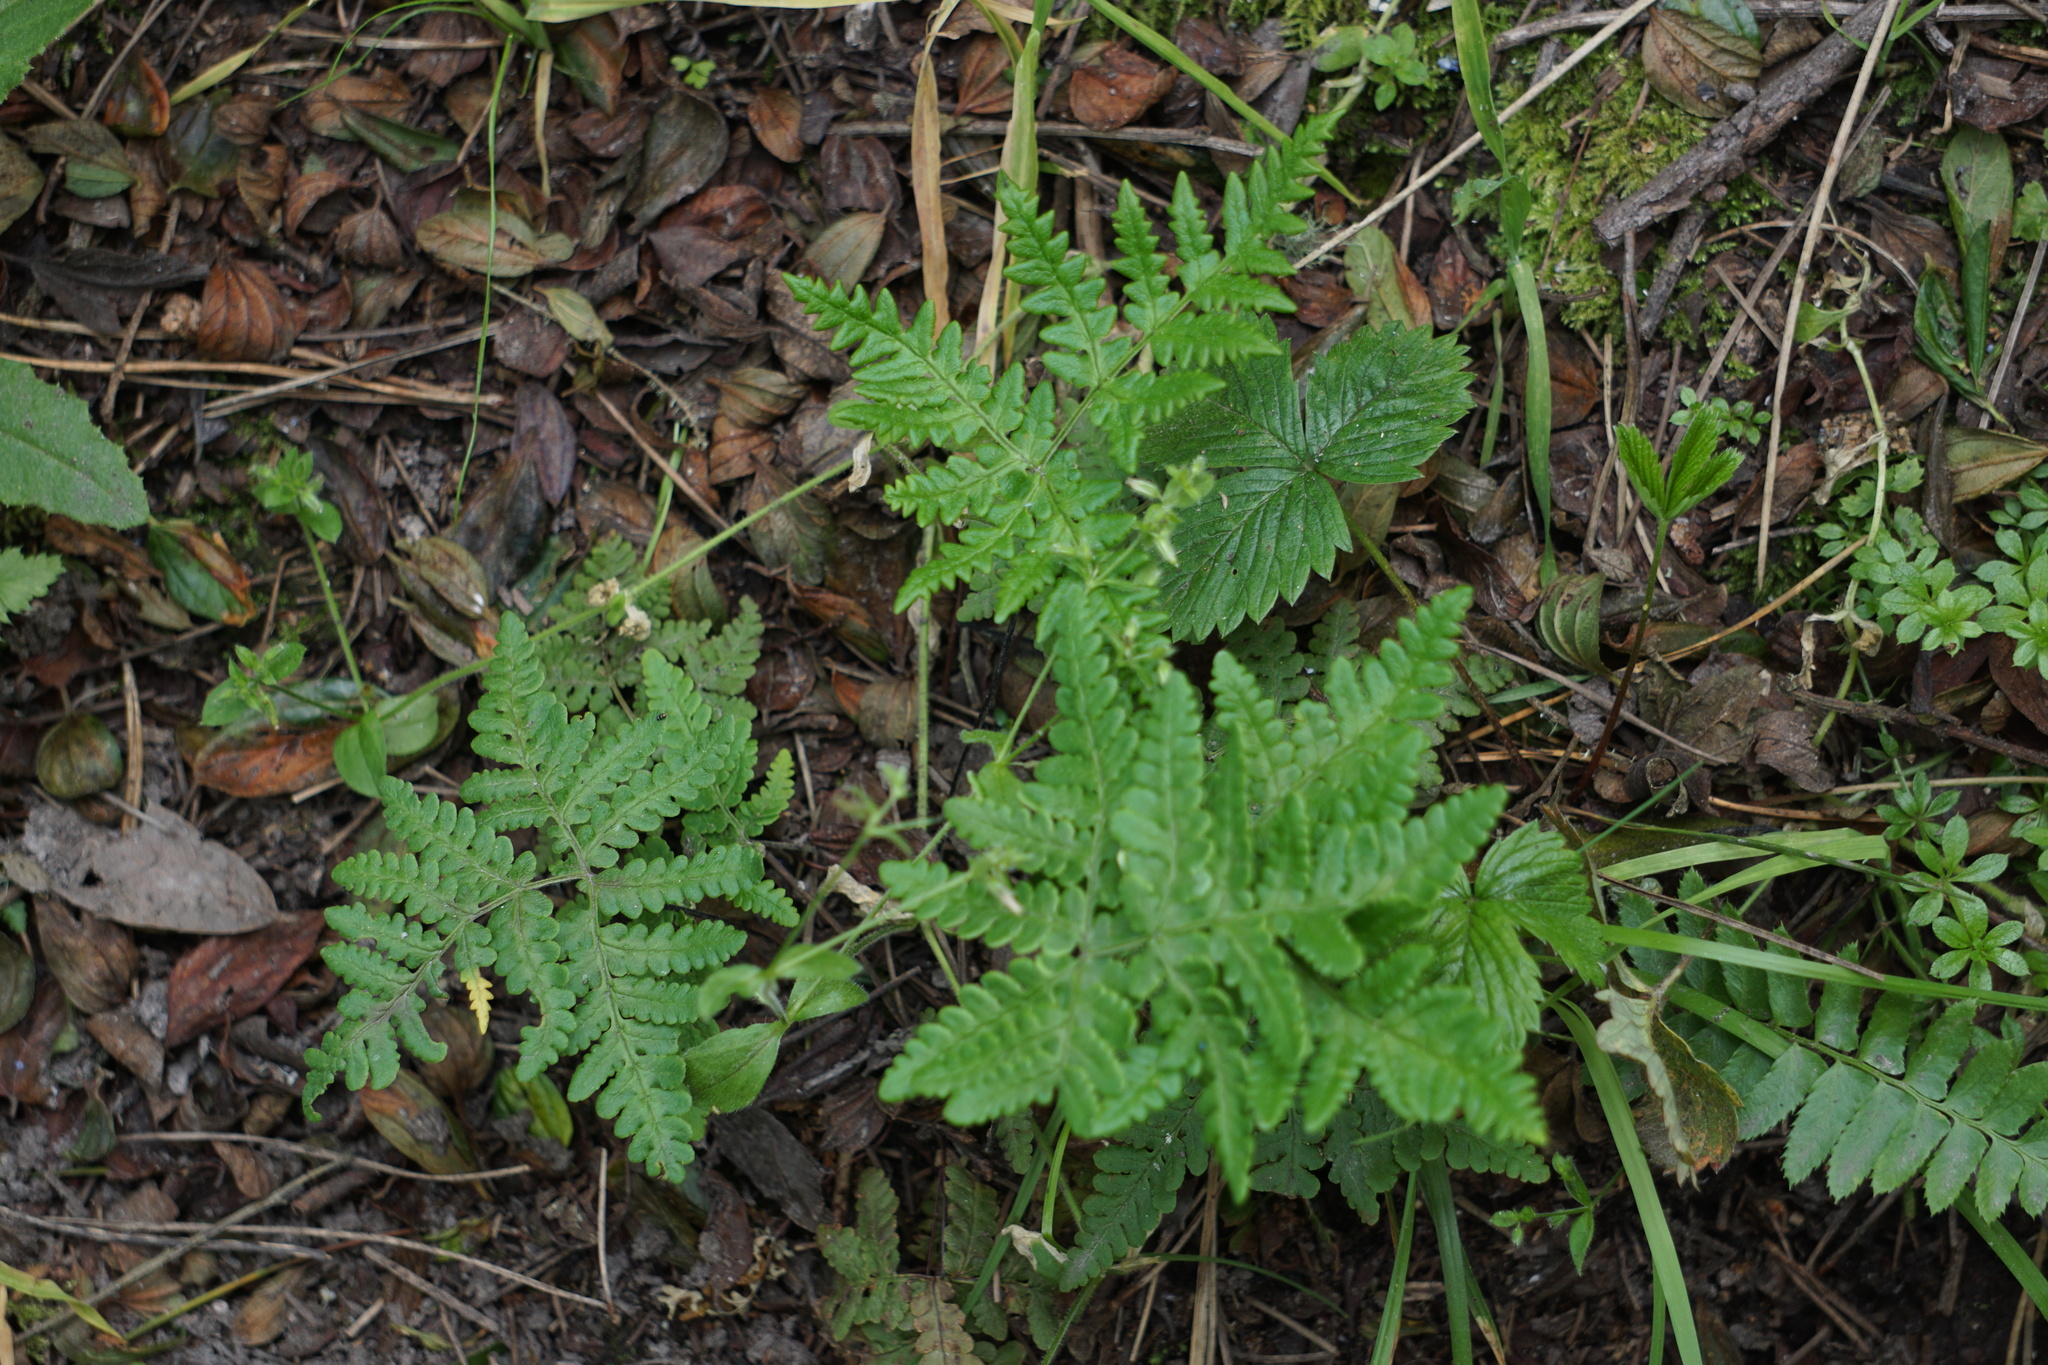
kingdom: Plantae
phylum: Tracheophyta
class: Polypodiopsida
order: Polypodiales
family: Pteridaceae
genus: Pentagramma
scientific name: Pentagramma triangularis
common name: Gold fern
